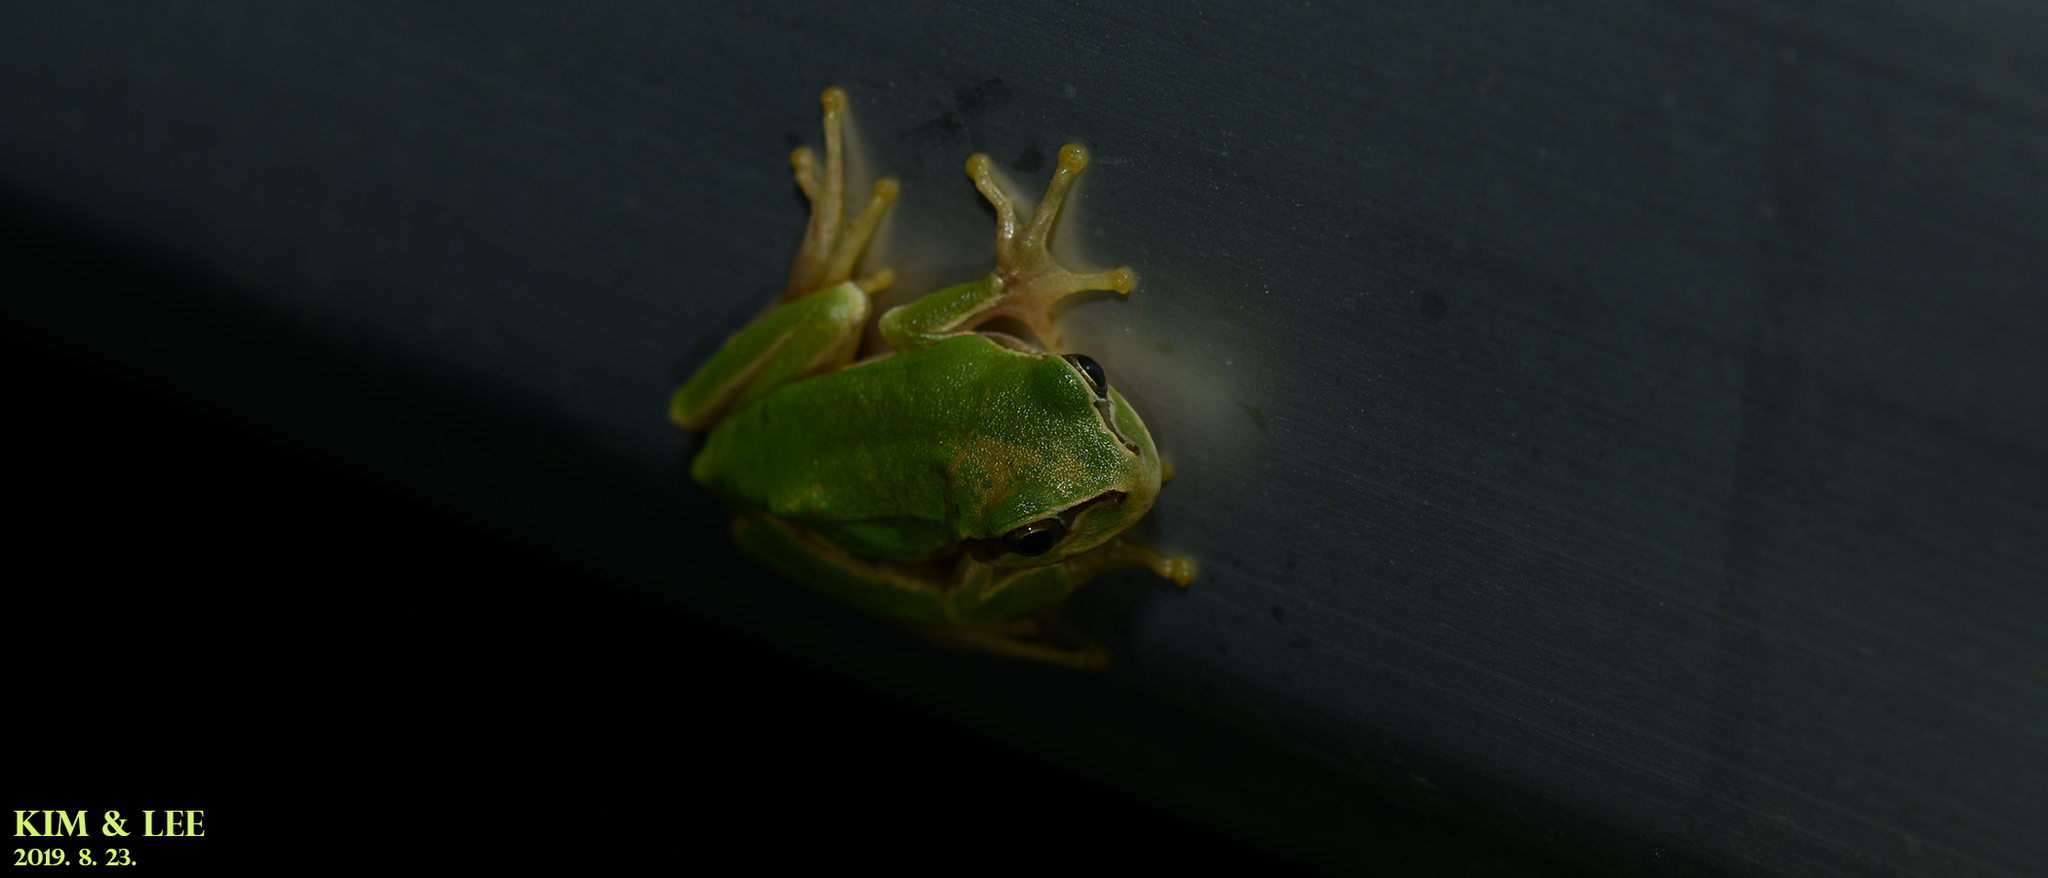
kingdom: Animalia
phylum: Chordata
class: Amphibia
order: Anura
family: Hylidae
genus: Dryophytes
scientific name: Dryophytes japonicus
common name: Japanese treefrog
